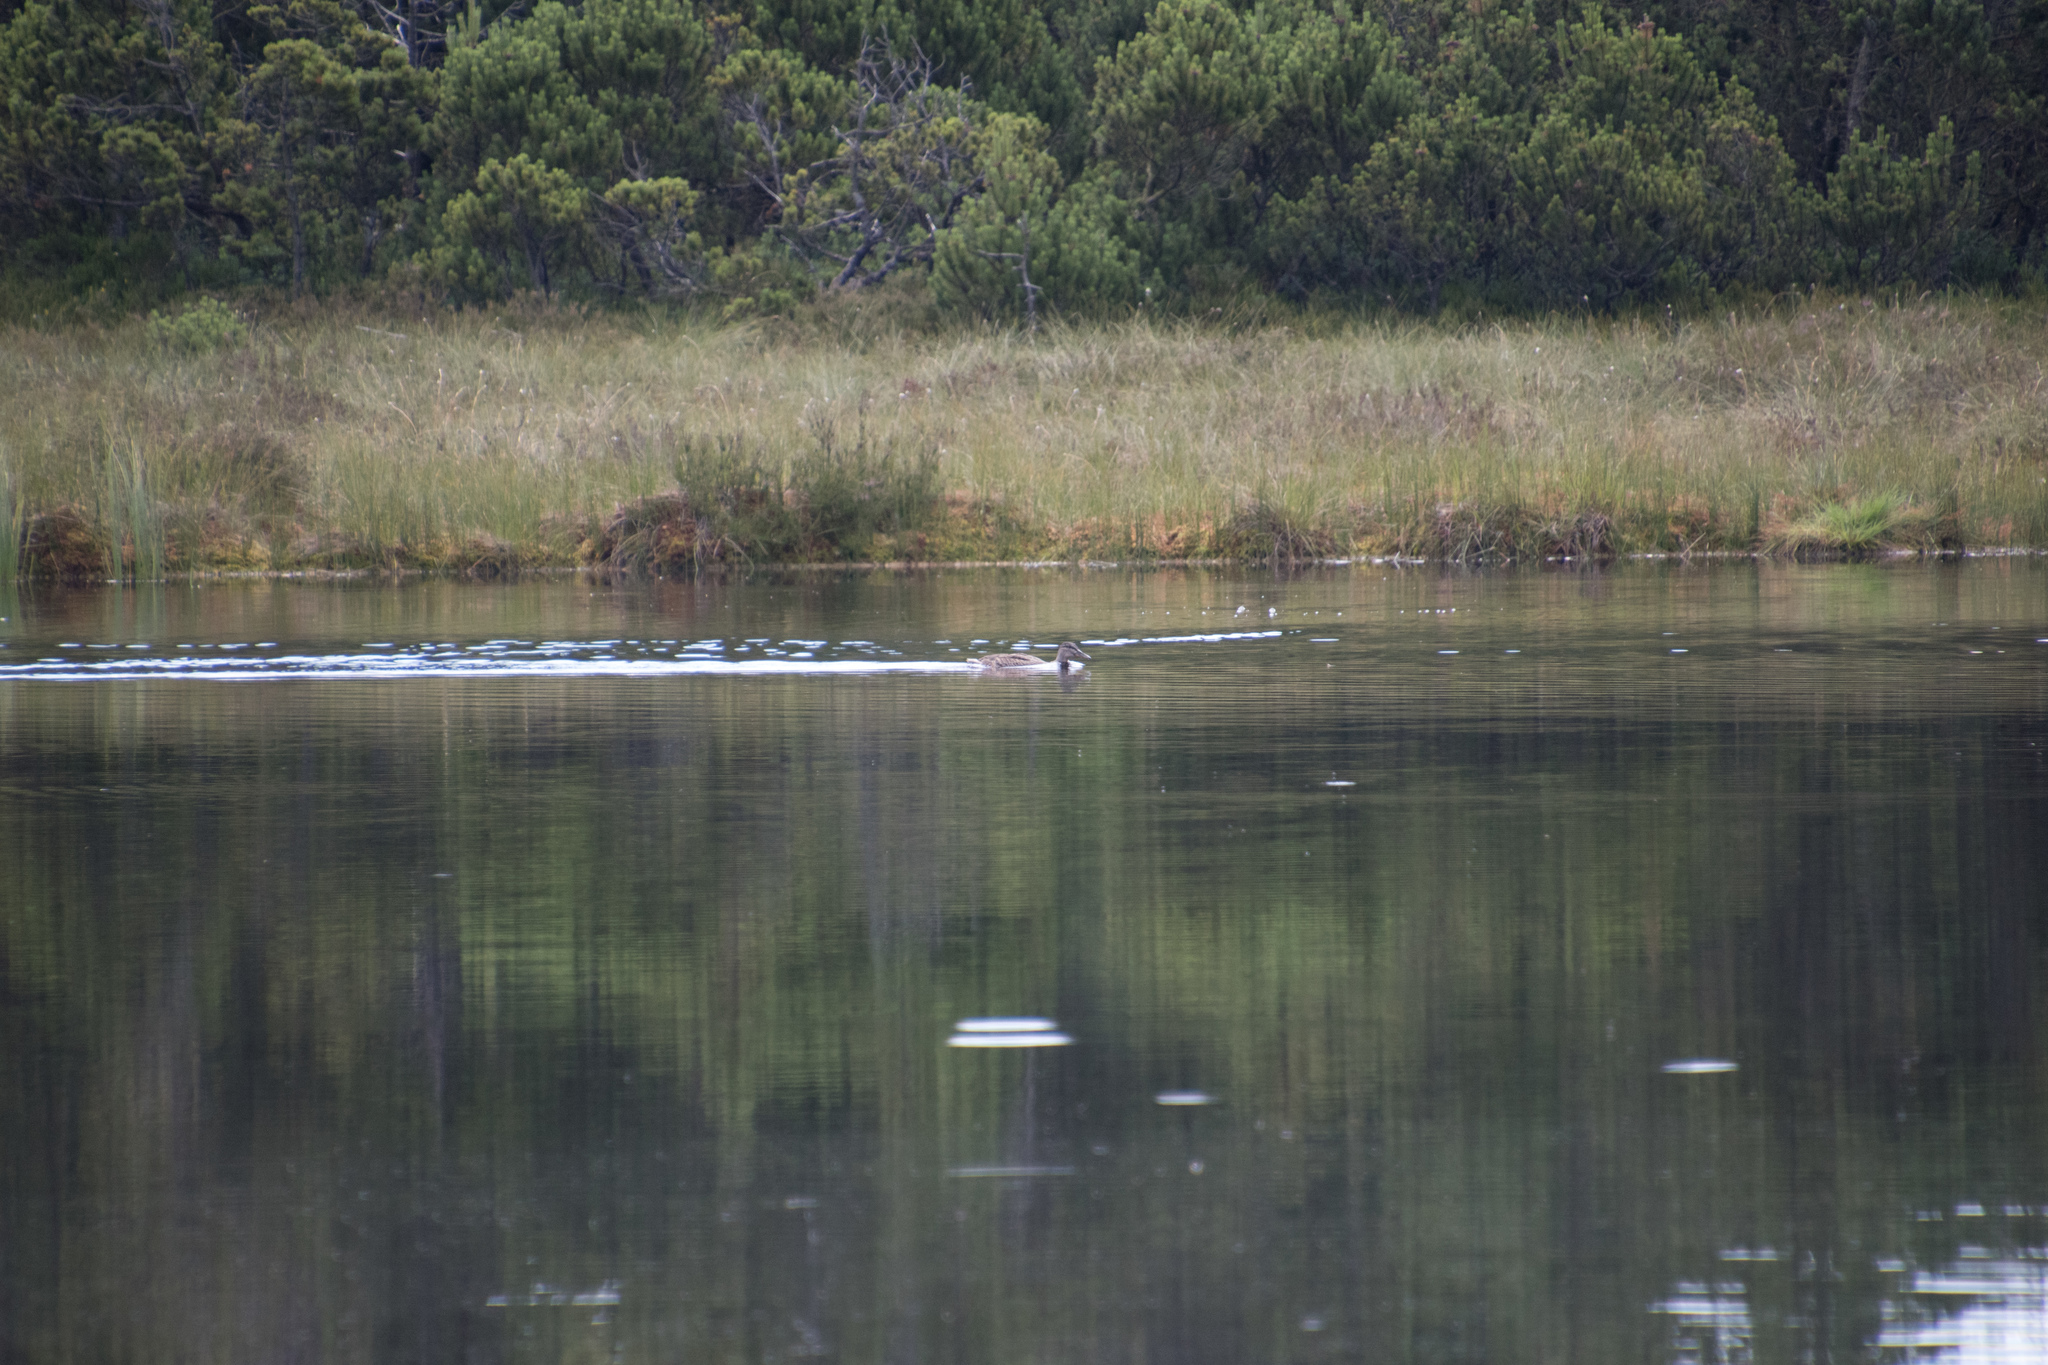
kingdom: Animalia
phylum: Chordata
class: Aves
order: Anseriformes
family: Anatidae
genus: Anas
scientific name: Anas platyrhynchos
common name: Mallard
